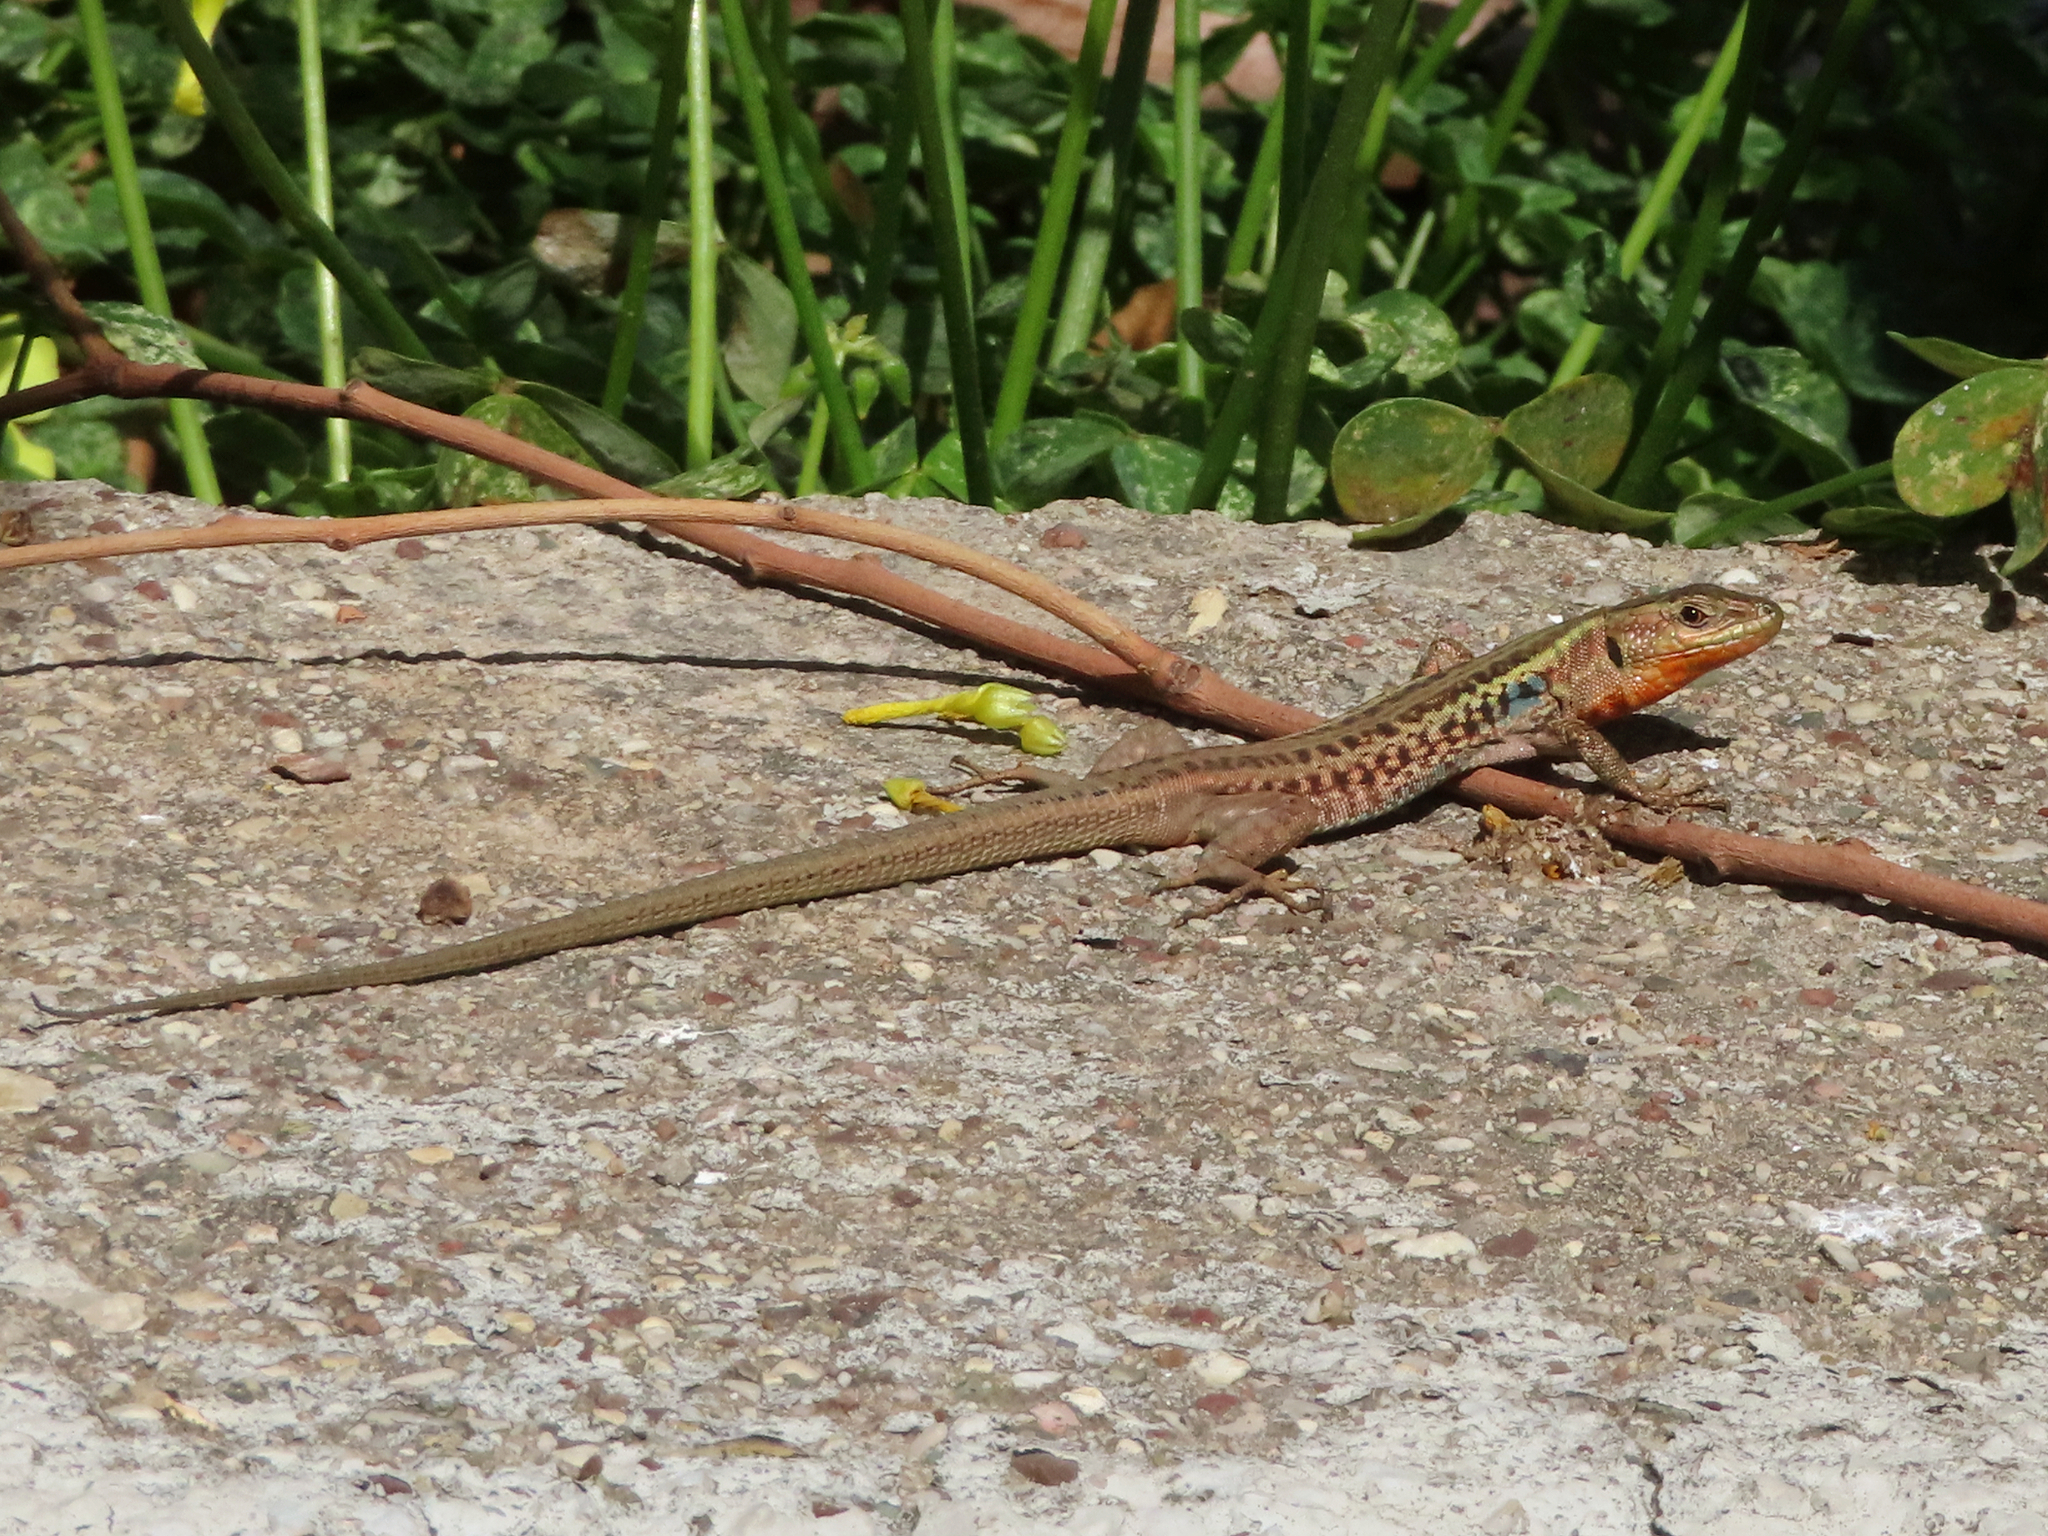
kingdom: Animalia
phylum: Chordata
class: Squamata
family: Lacertidae
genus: Podarcis
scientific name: Podarcis peloponnesiacus
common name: Peloponnese wall lizard
